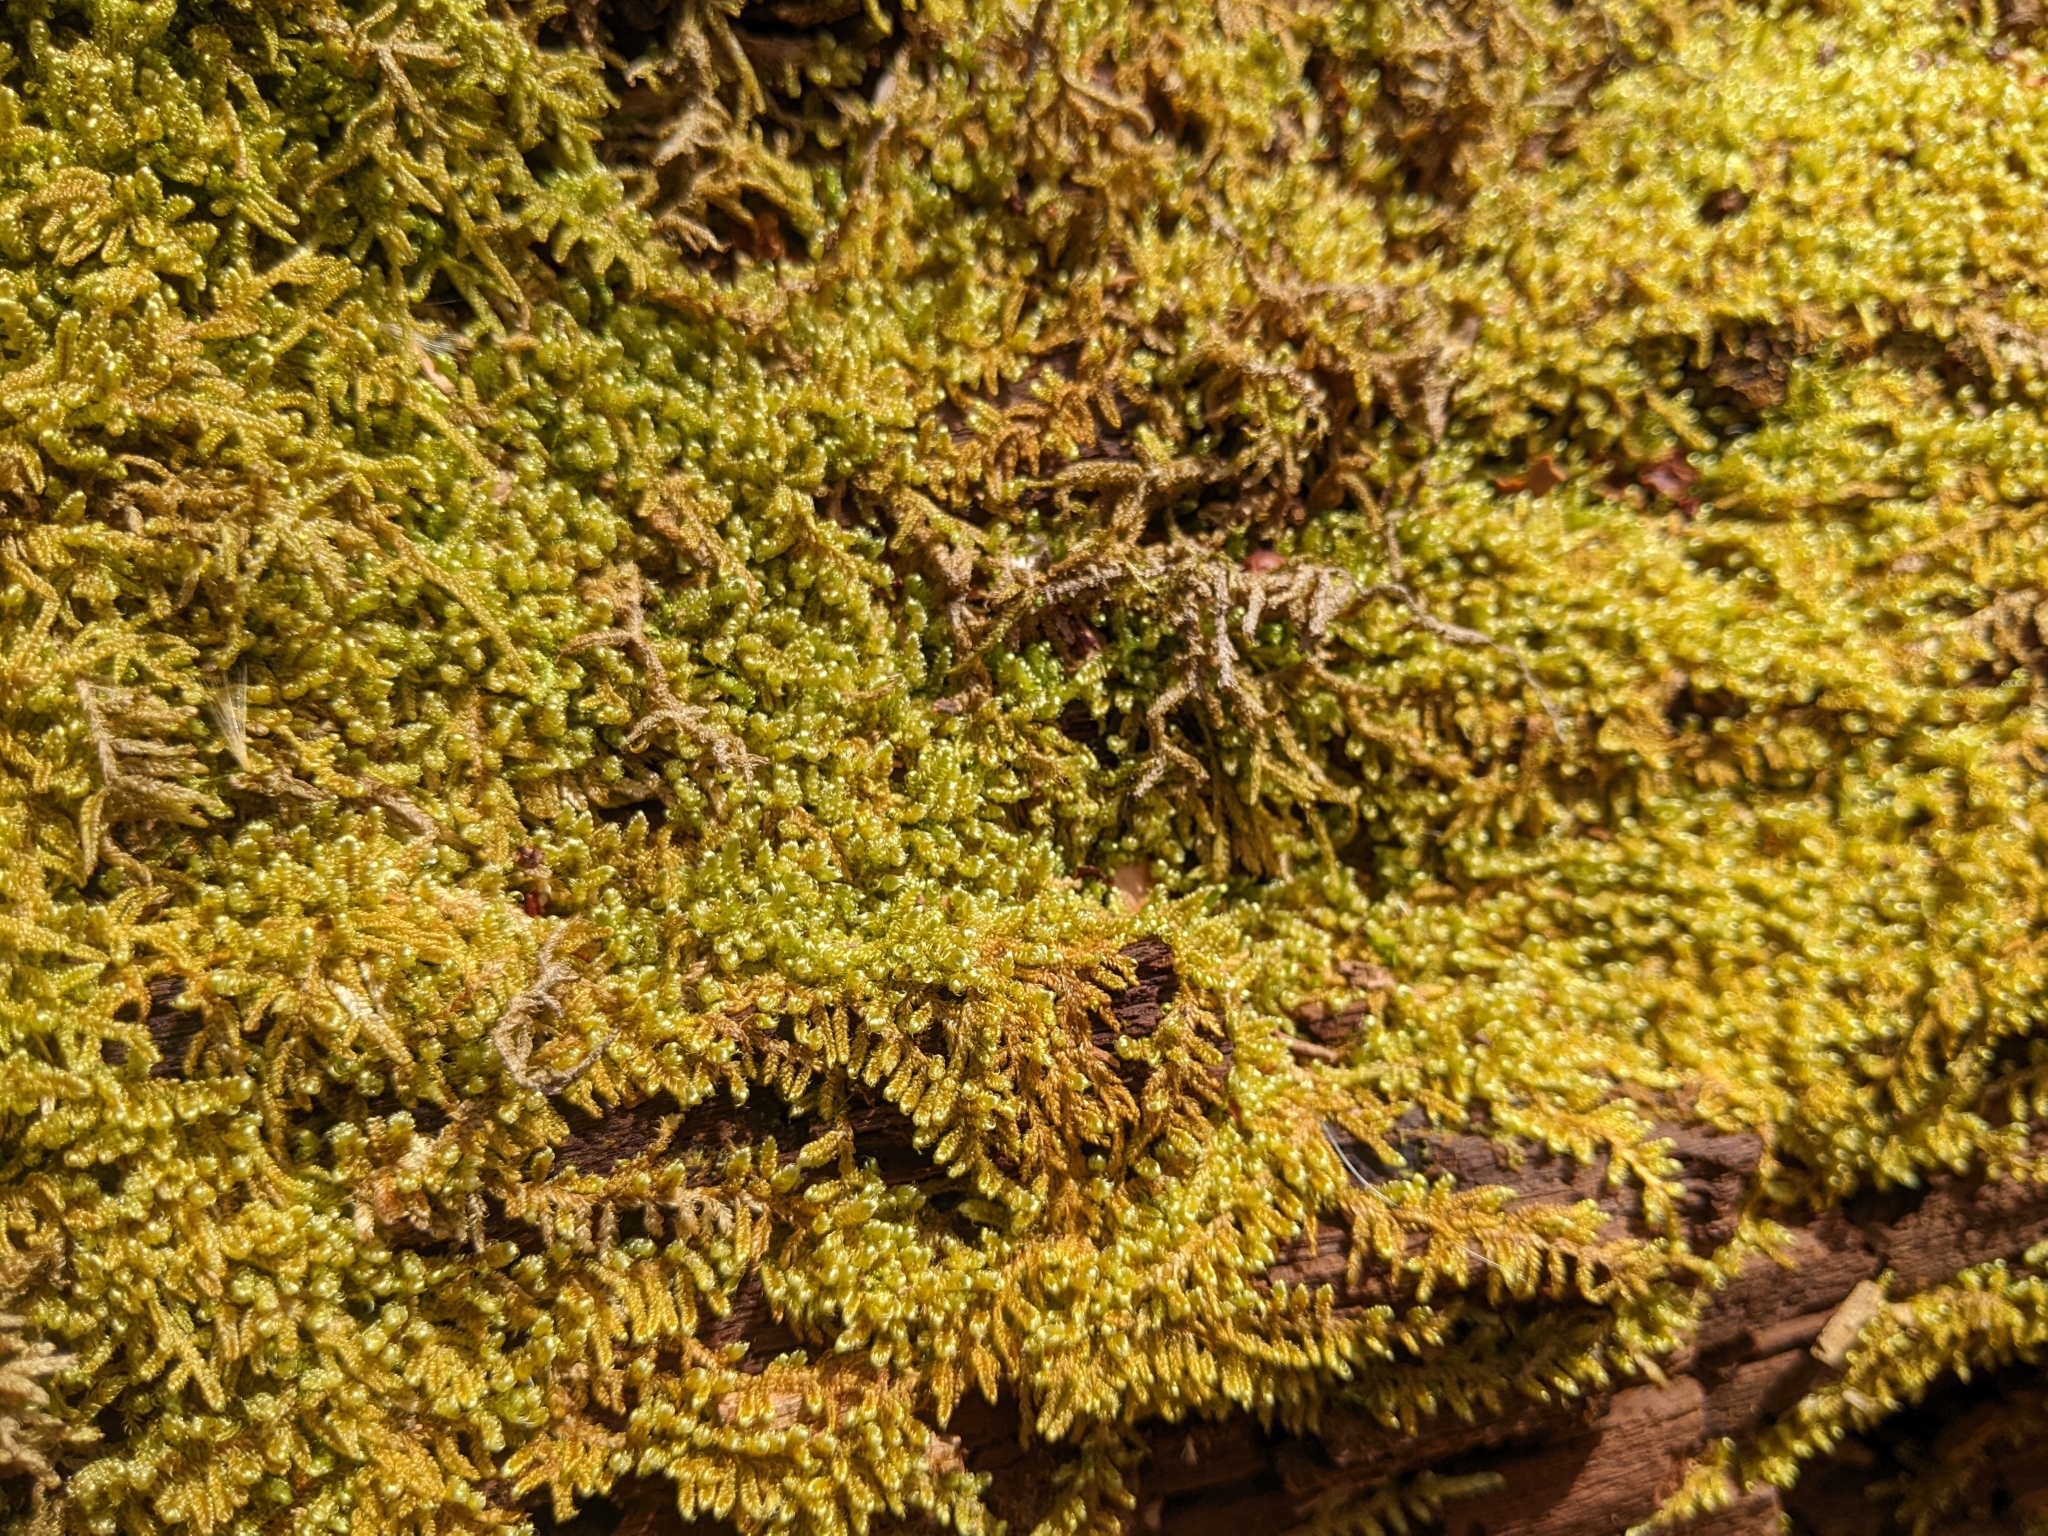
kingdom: Plantae
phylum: Bryophyta
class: Bryopsida
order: Hypnales
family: Callicladiaceae
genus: Callicladium
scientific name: Callicladium imponens
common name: Brocade moss
